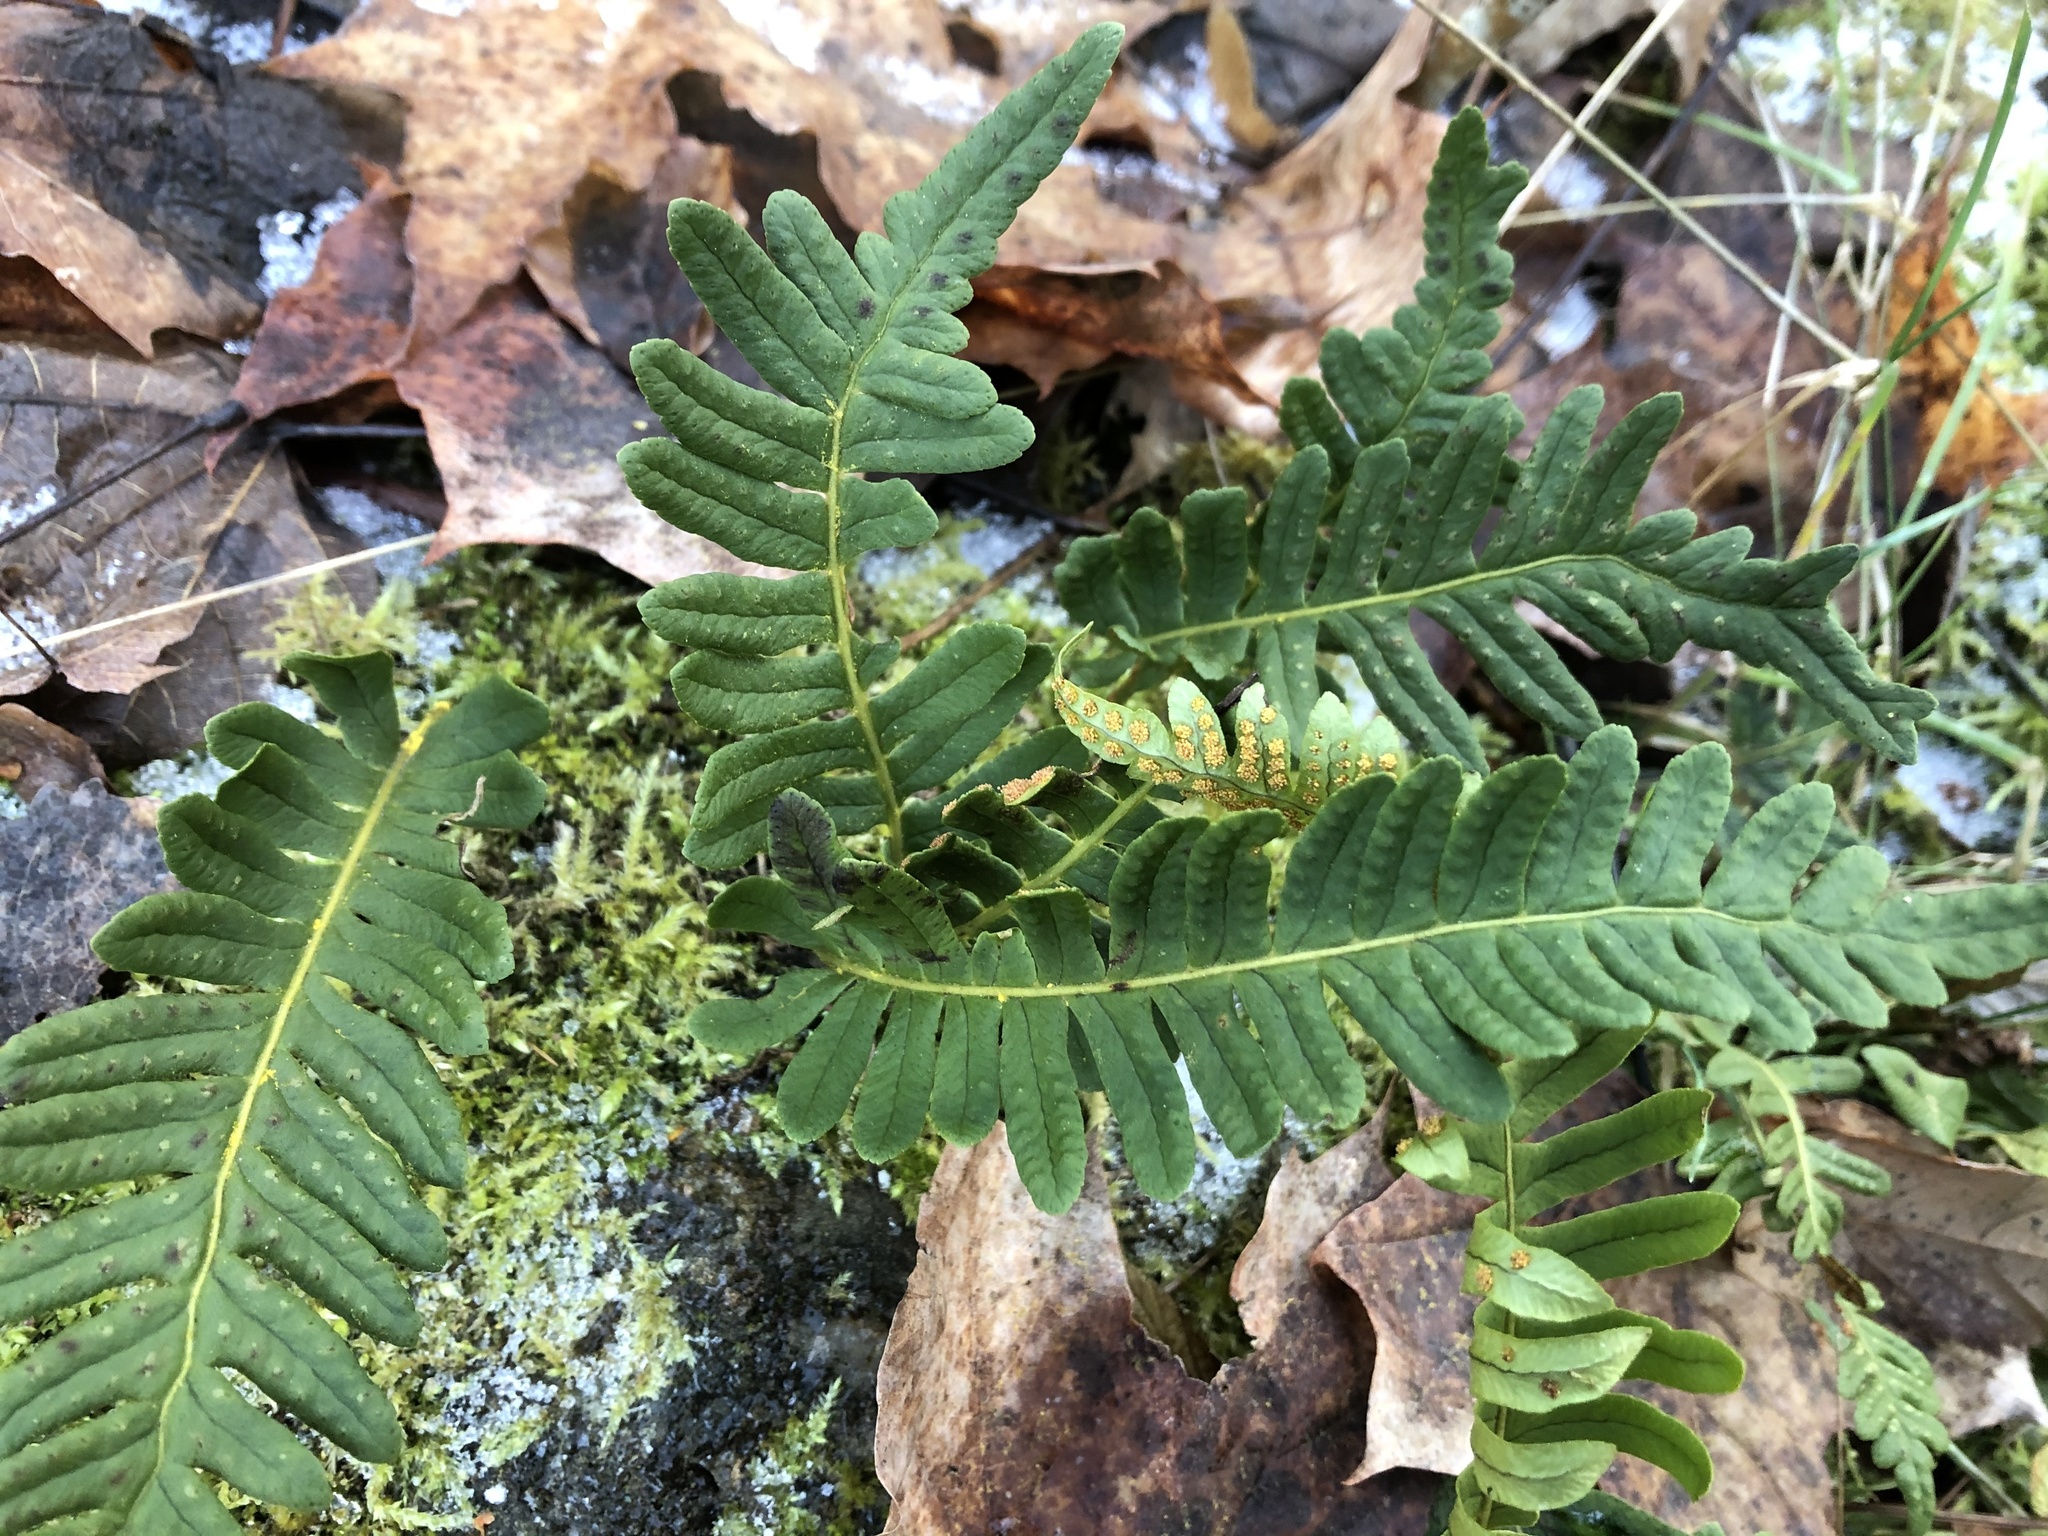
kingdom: Plantae
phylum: Tracheophyta
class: Polypodiopsida
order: Polypodiales
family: Polypodiaceae
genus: Polypodium
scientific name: Polypodium vulgare
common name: Common polypody
